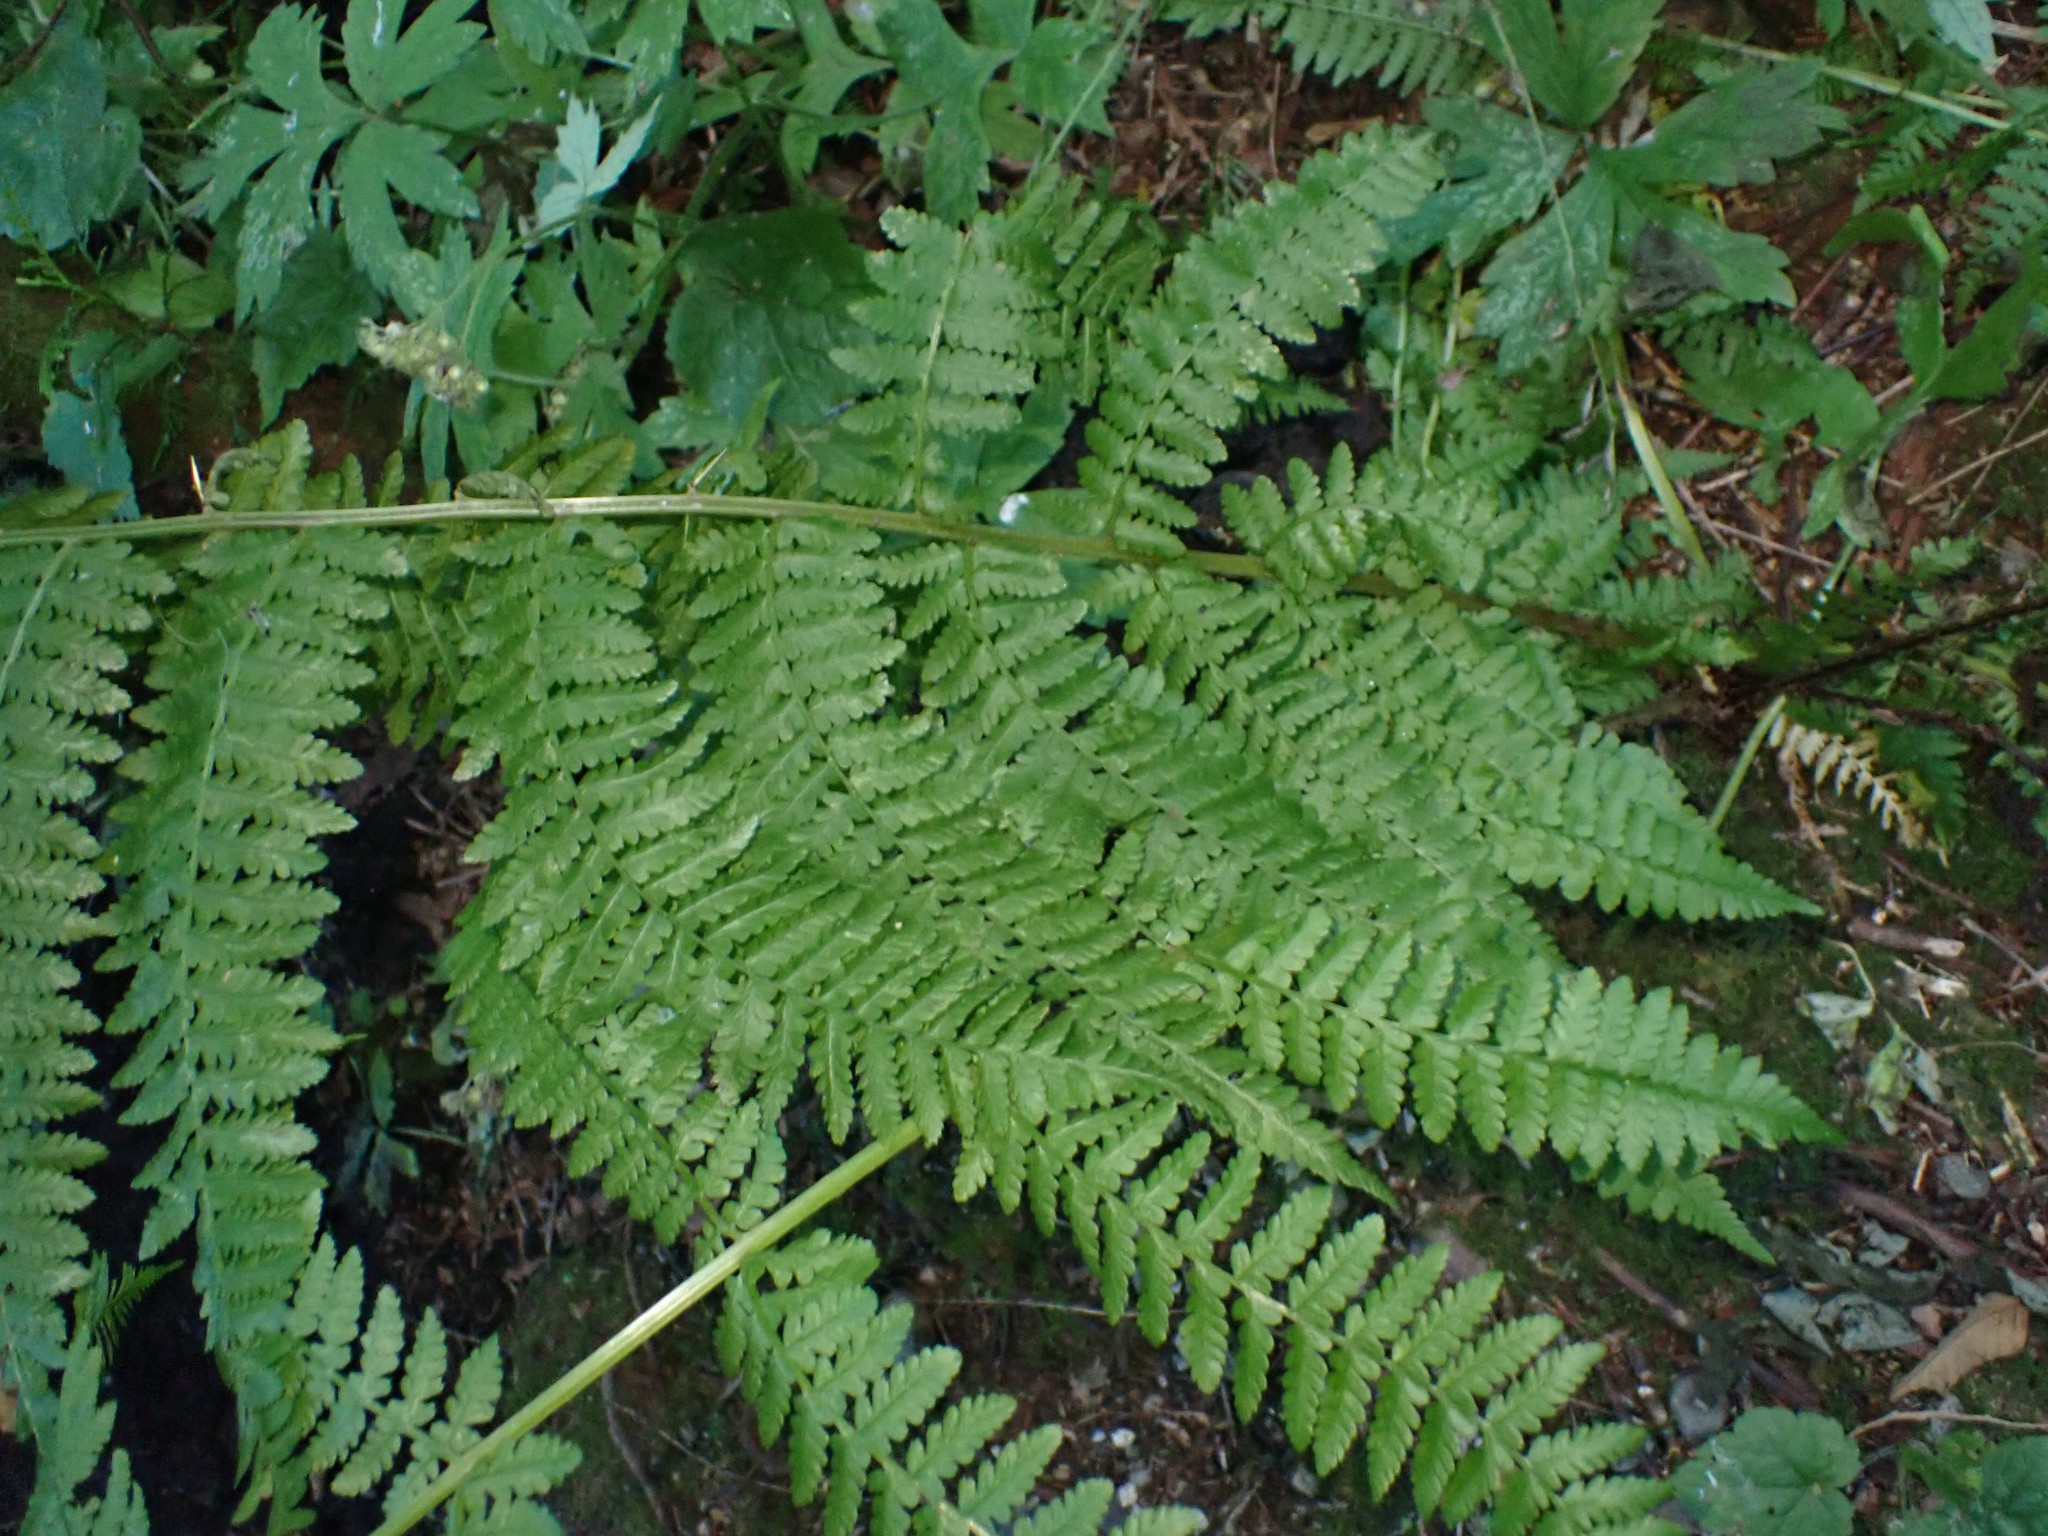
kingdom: Plantae
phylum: Tracheophyta
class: Polypodiopsida
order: Polypodiales
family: Athyriaceae
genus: Athyrium
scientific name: Athyrium filix-femina
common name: Lady fern
